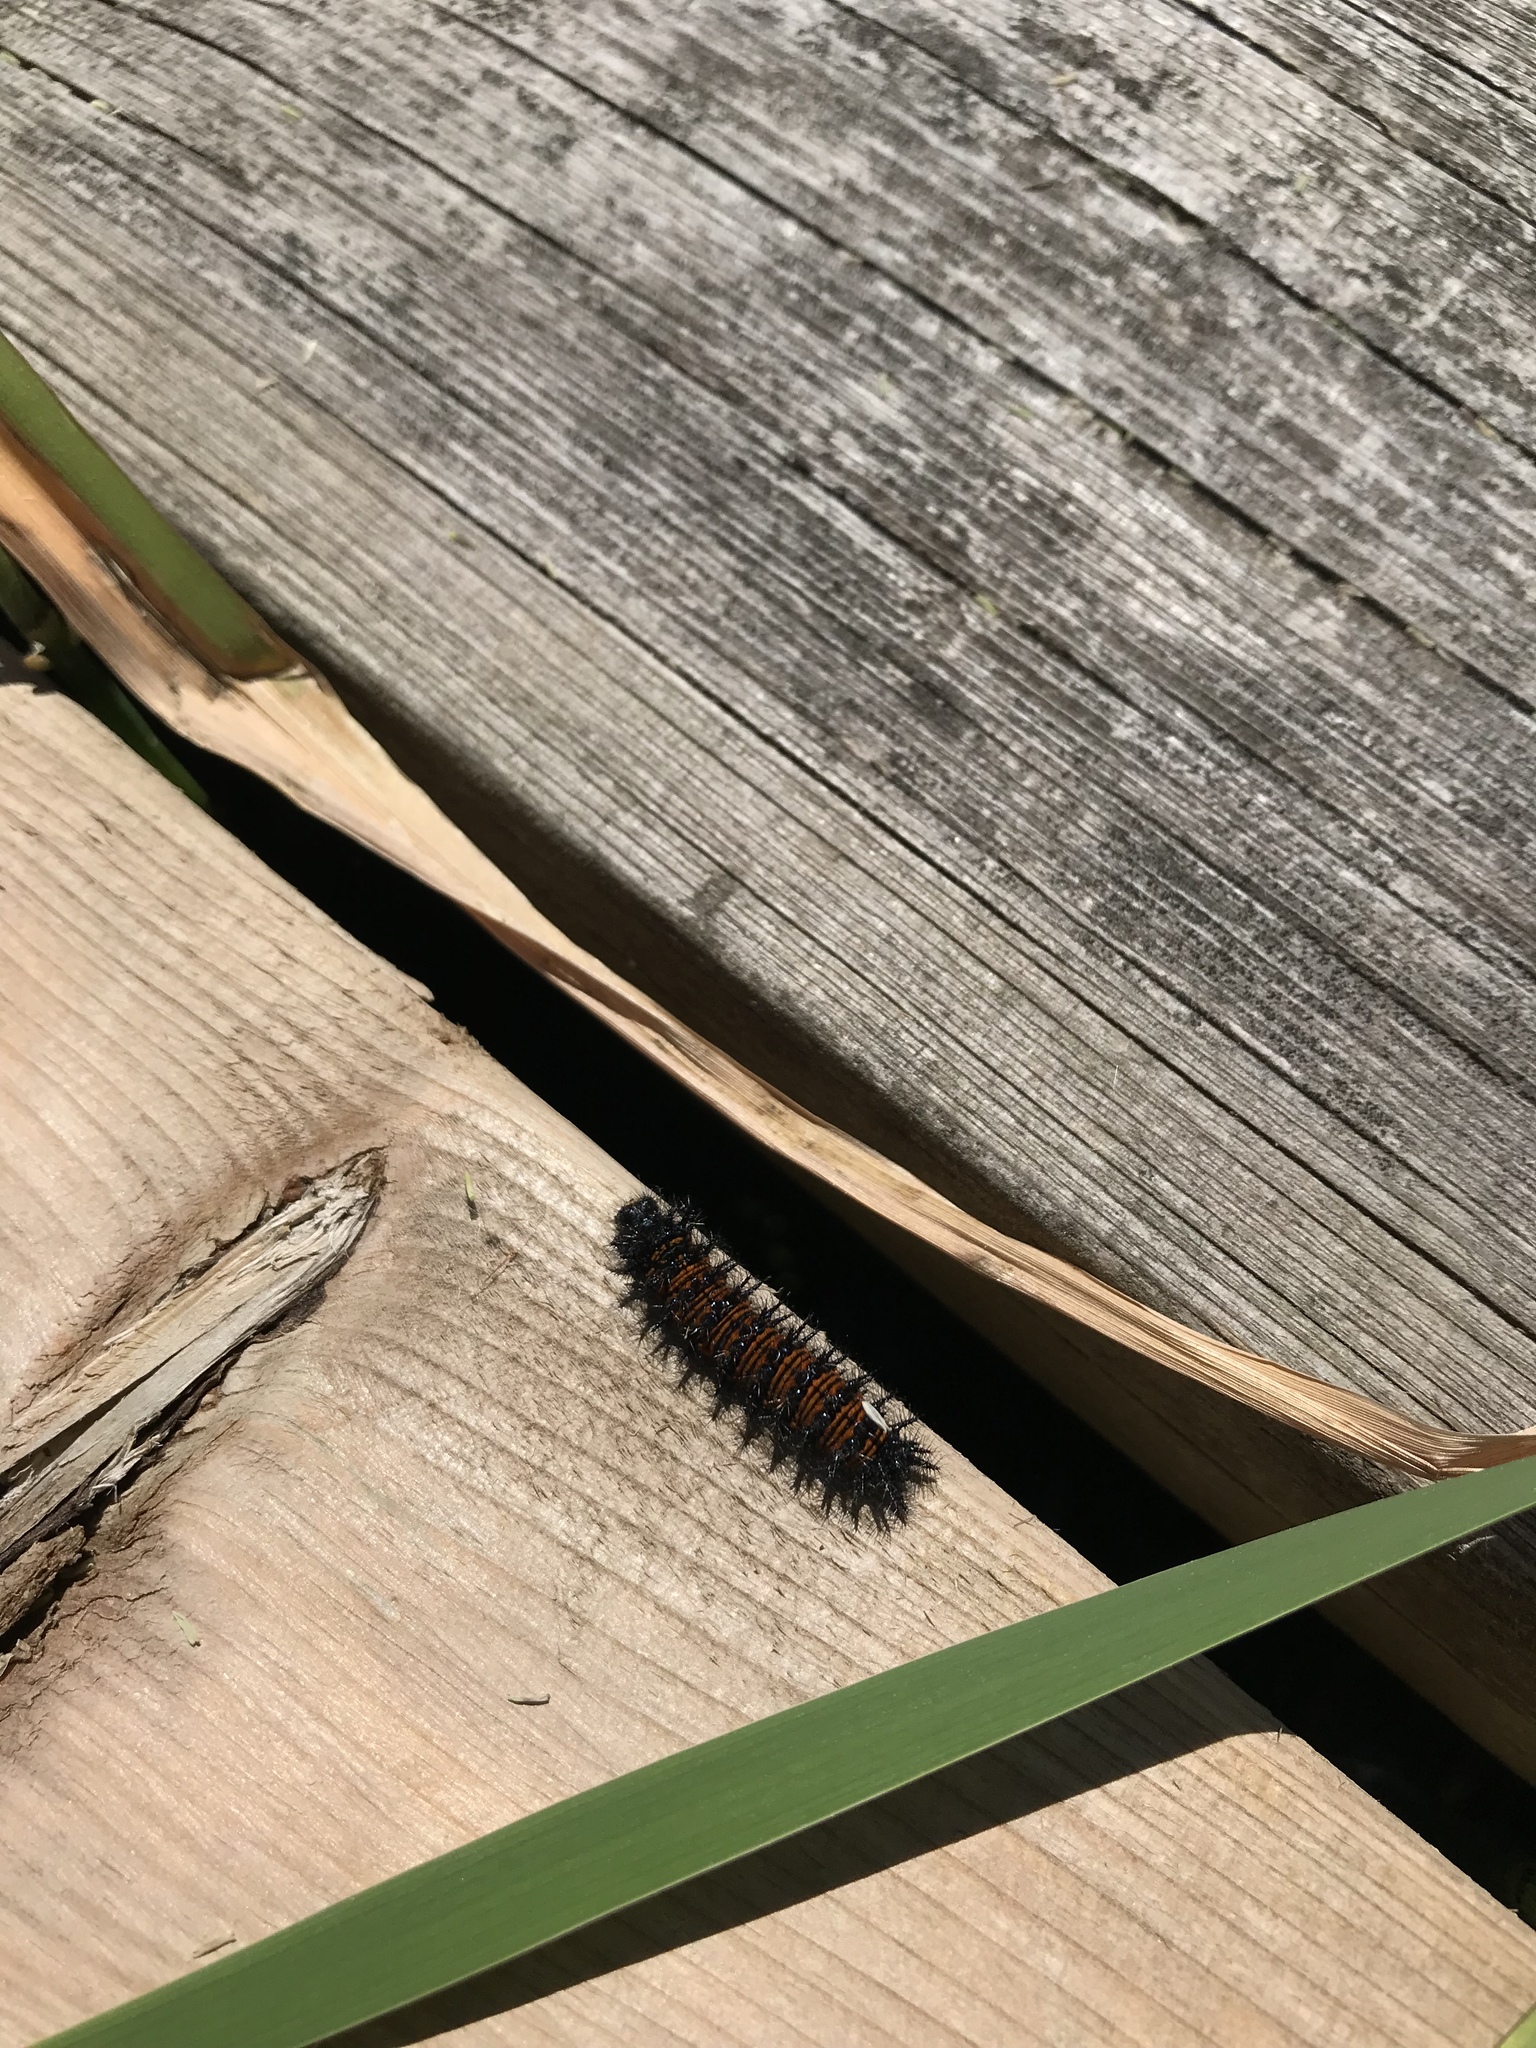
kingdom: Animalia
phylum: Arthropoda
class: Insecta
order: Lepidoptera
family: Nymphalidae
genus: Euphydryas
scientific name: Euphydryas phaeton
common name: Baltimore checkerspot
